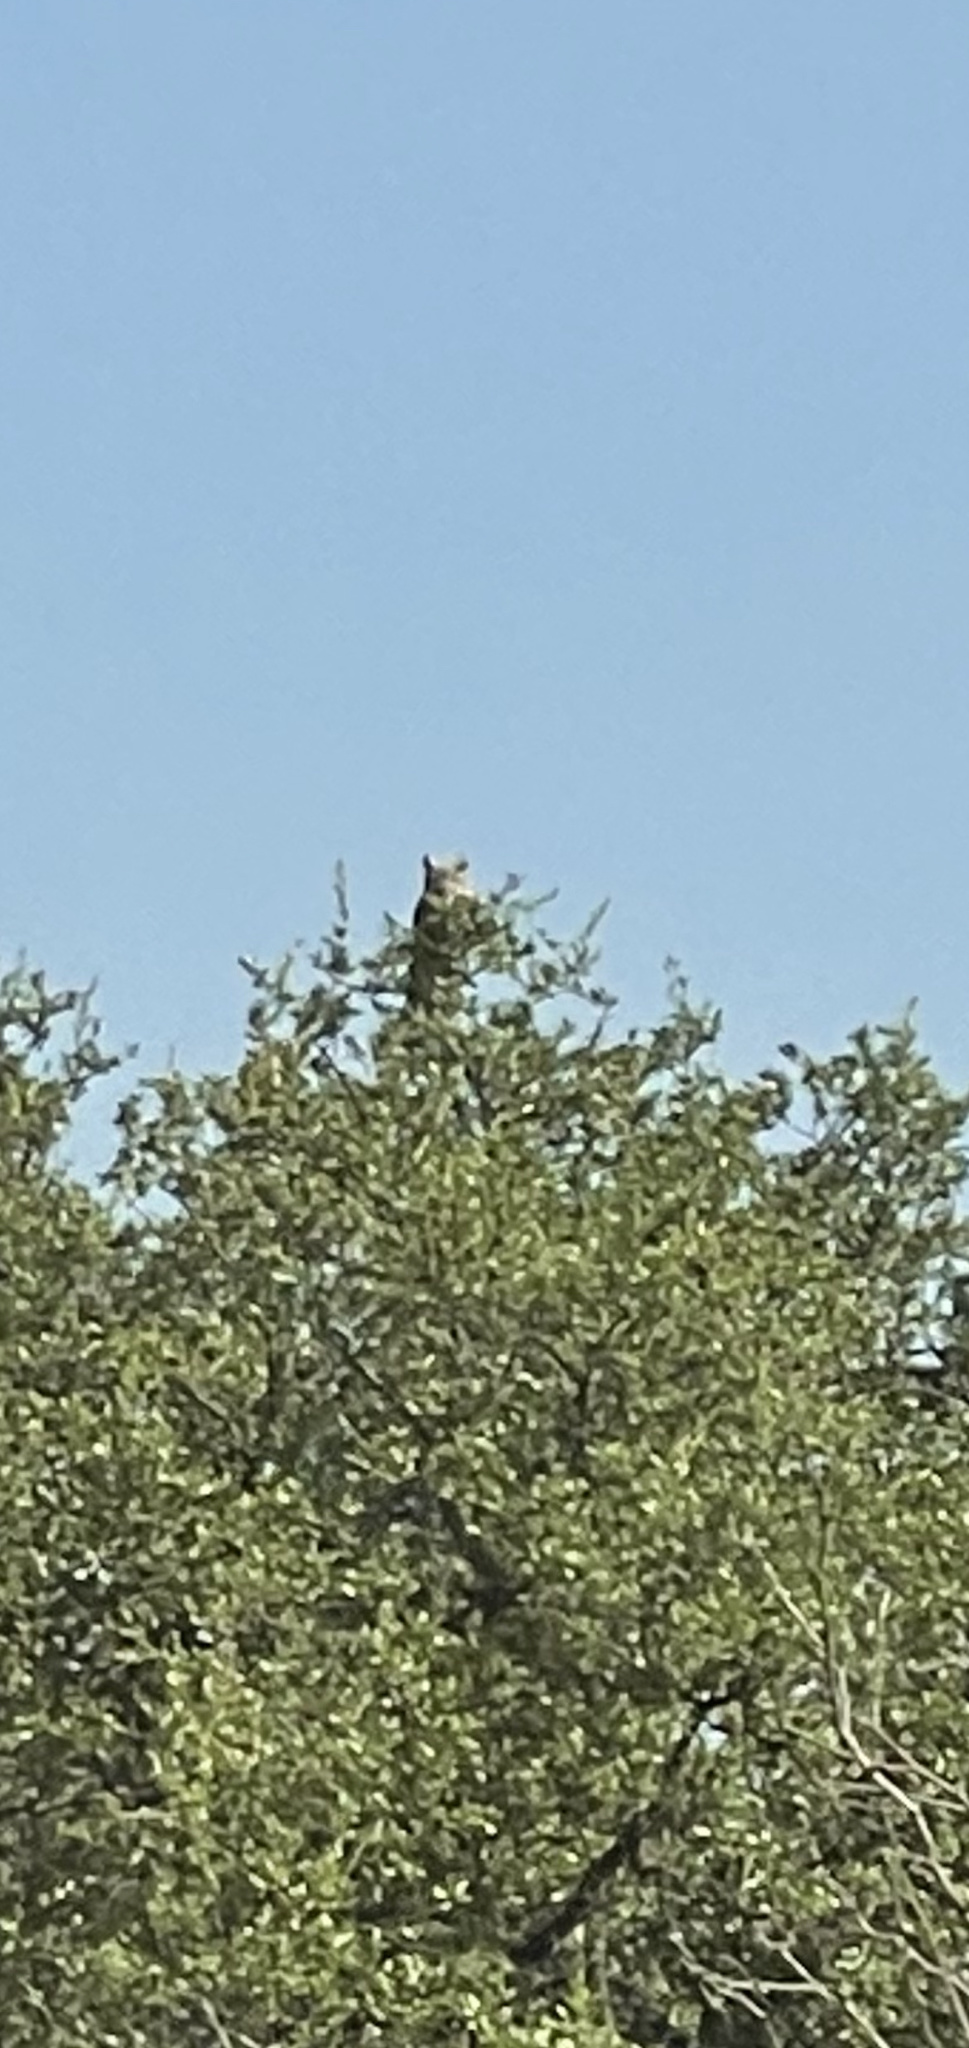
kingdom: Animalia
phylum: Chordata
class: Aves
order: Strigiformes
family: Strigidae
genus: Bubo
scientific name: Bubo virginianus
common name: Great horned owl
